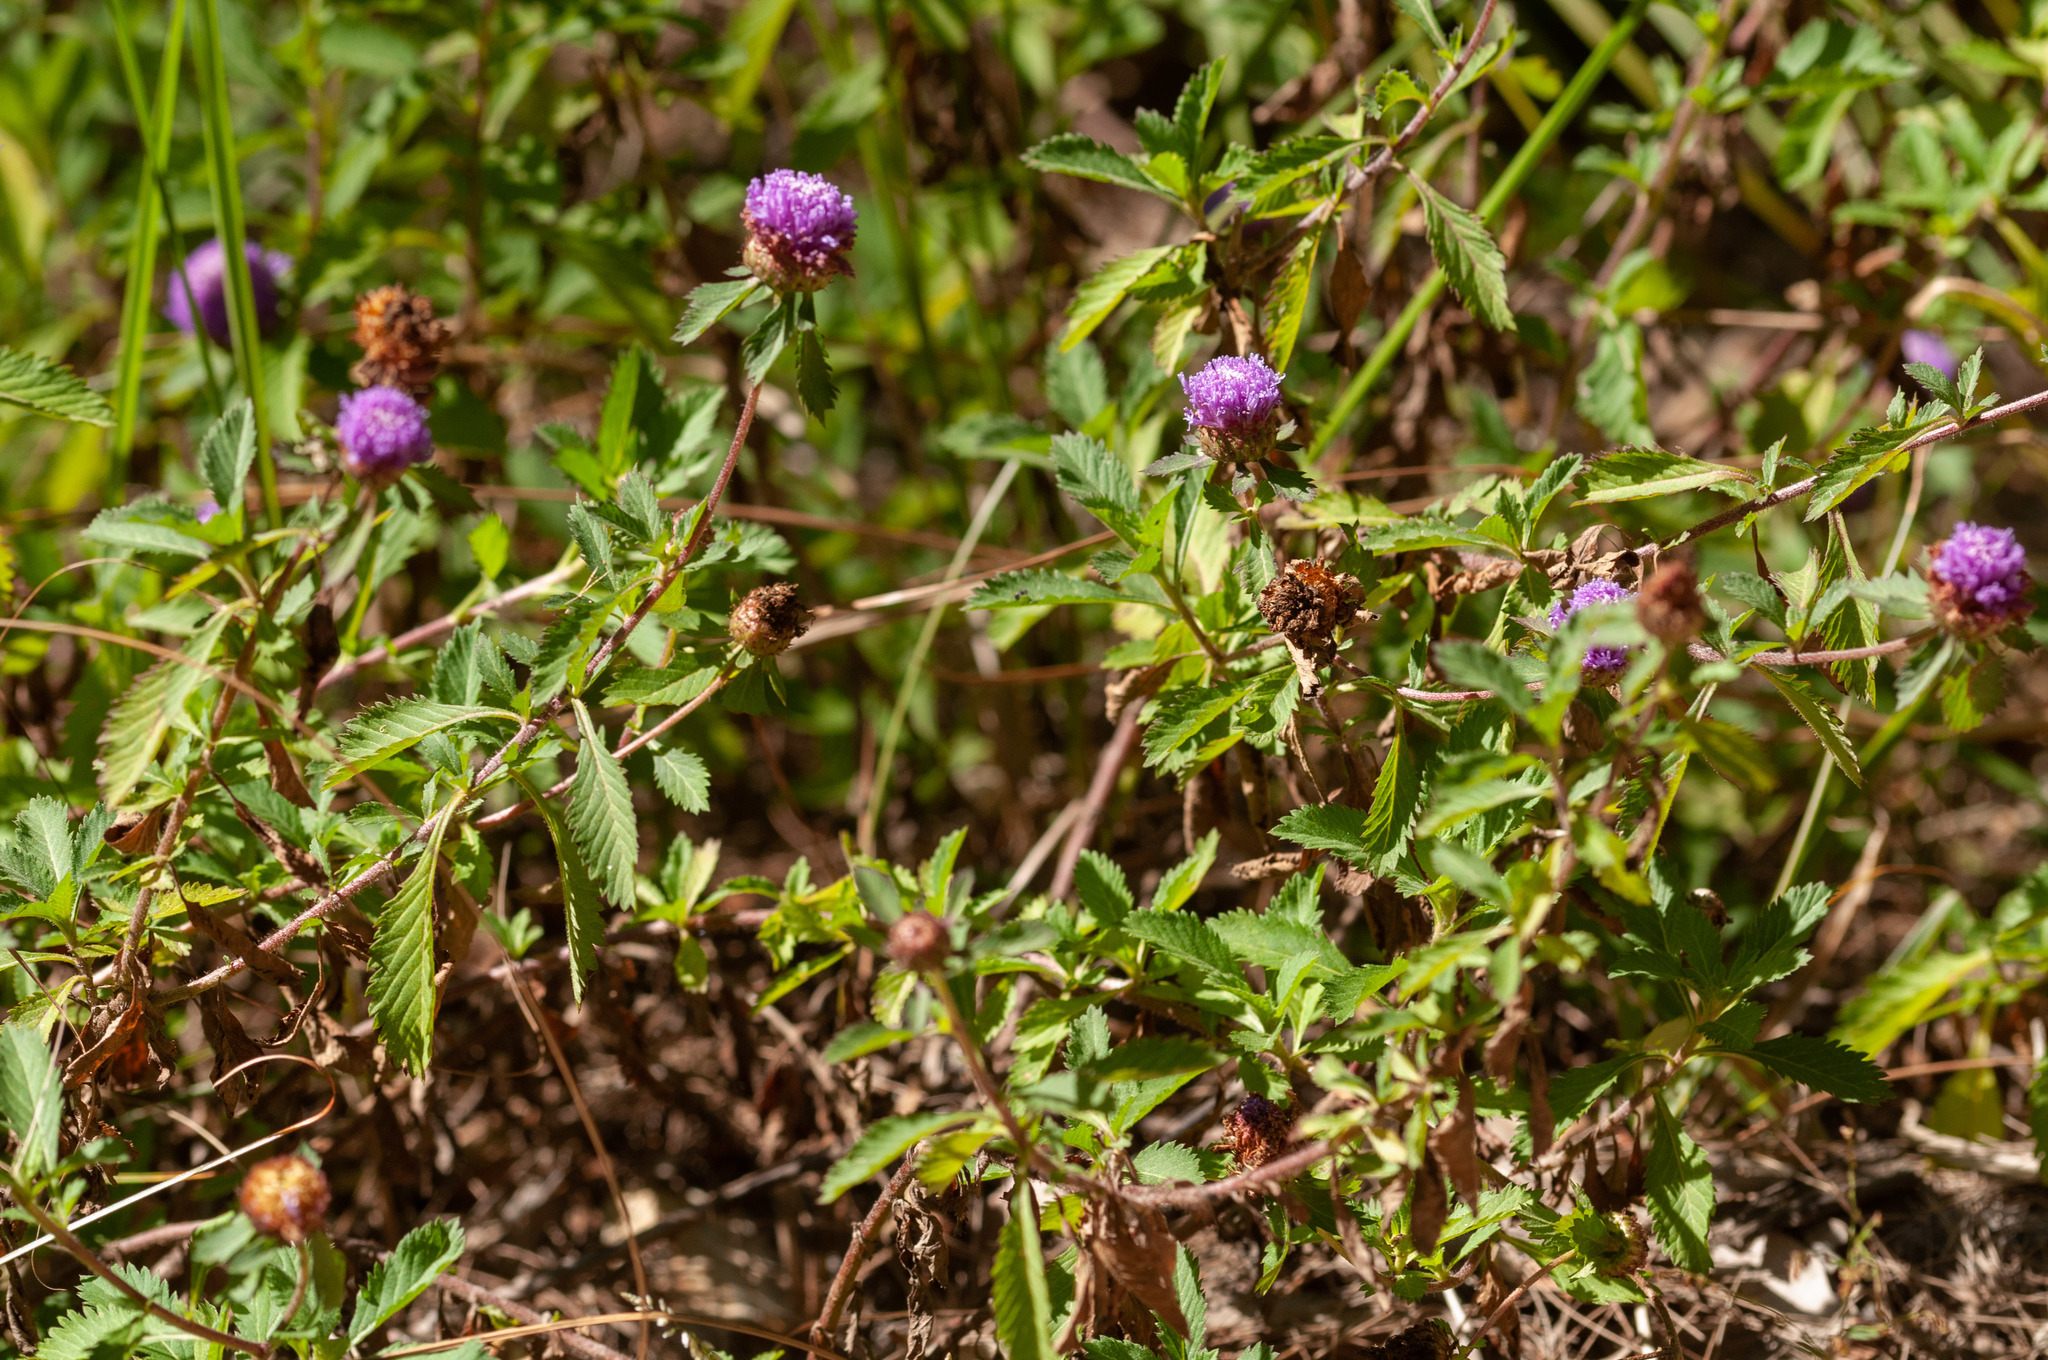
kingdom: Plantae
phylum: Tracheophyta
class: Magnoliopsida
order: Asterales
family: Asteraceae
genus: Centratherum
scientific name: Centratherum punctatum
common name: Larkdaisy
